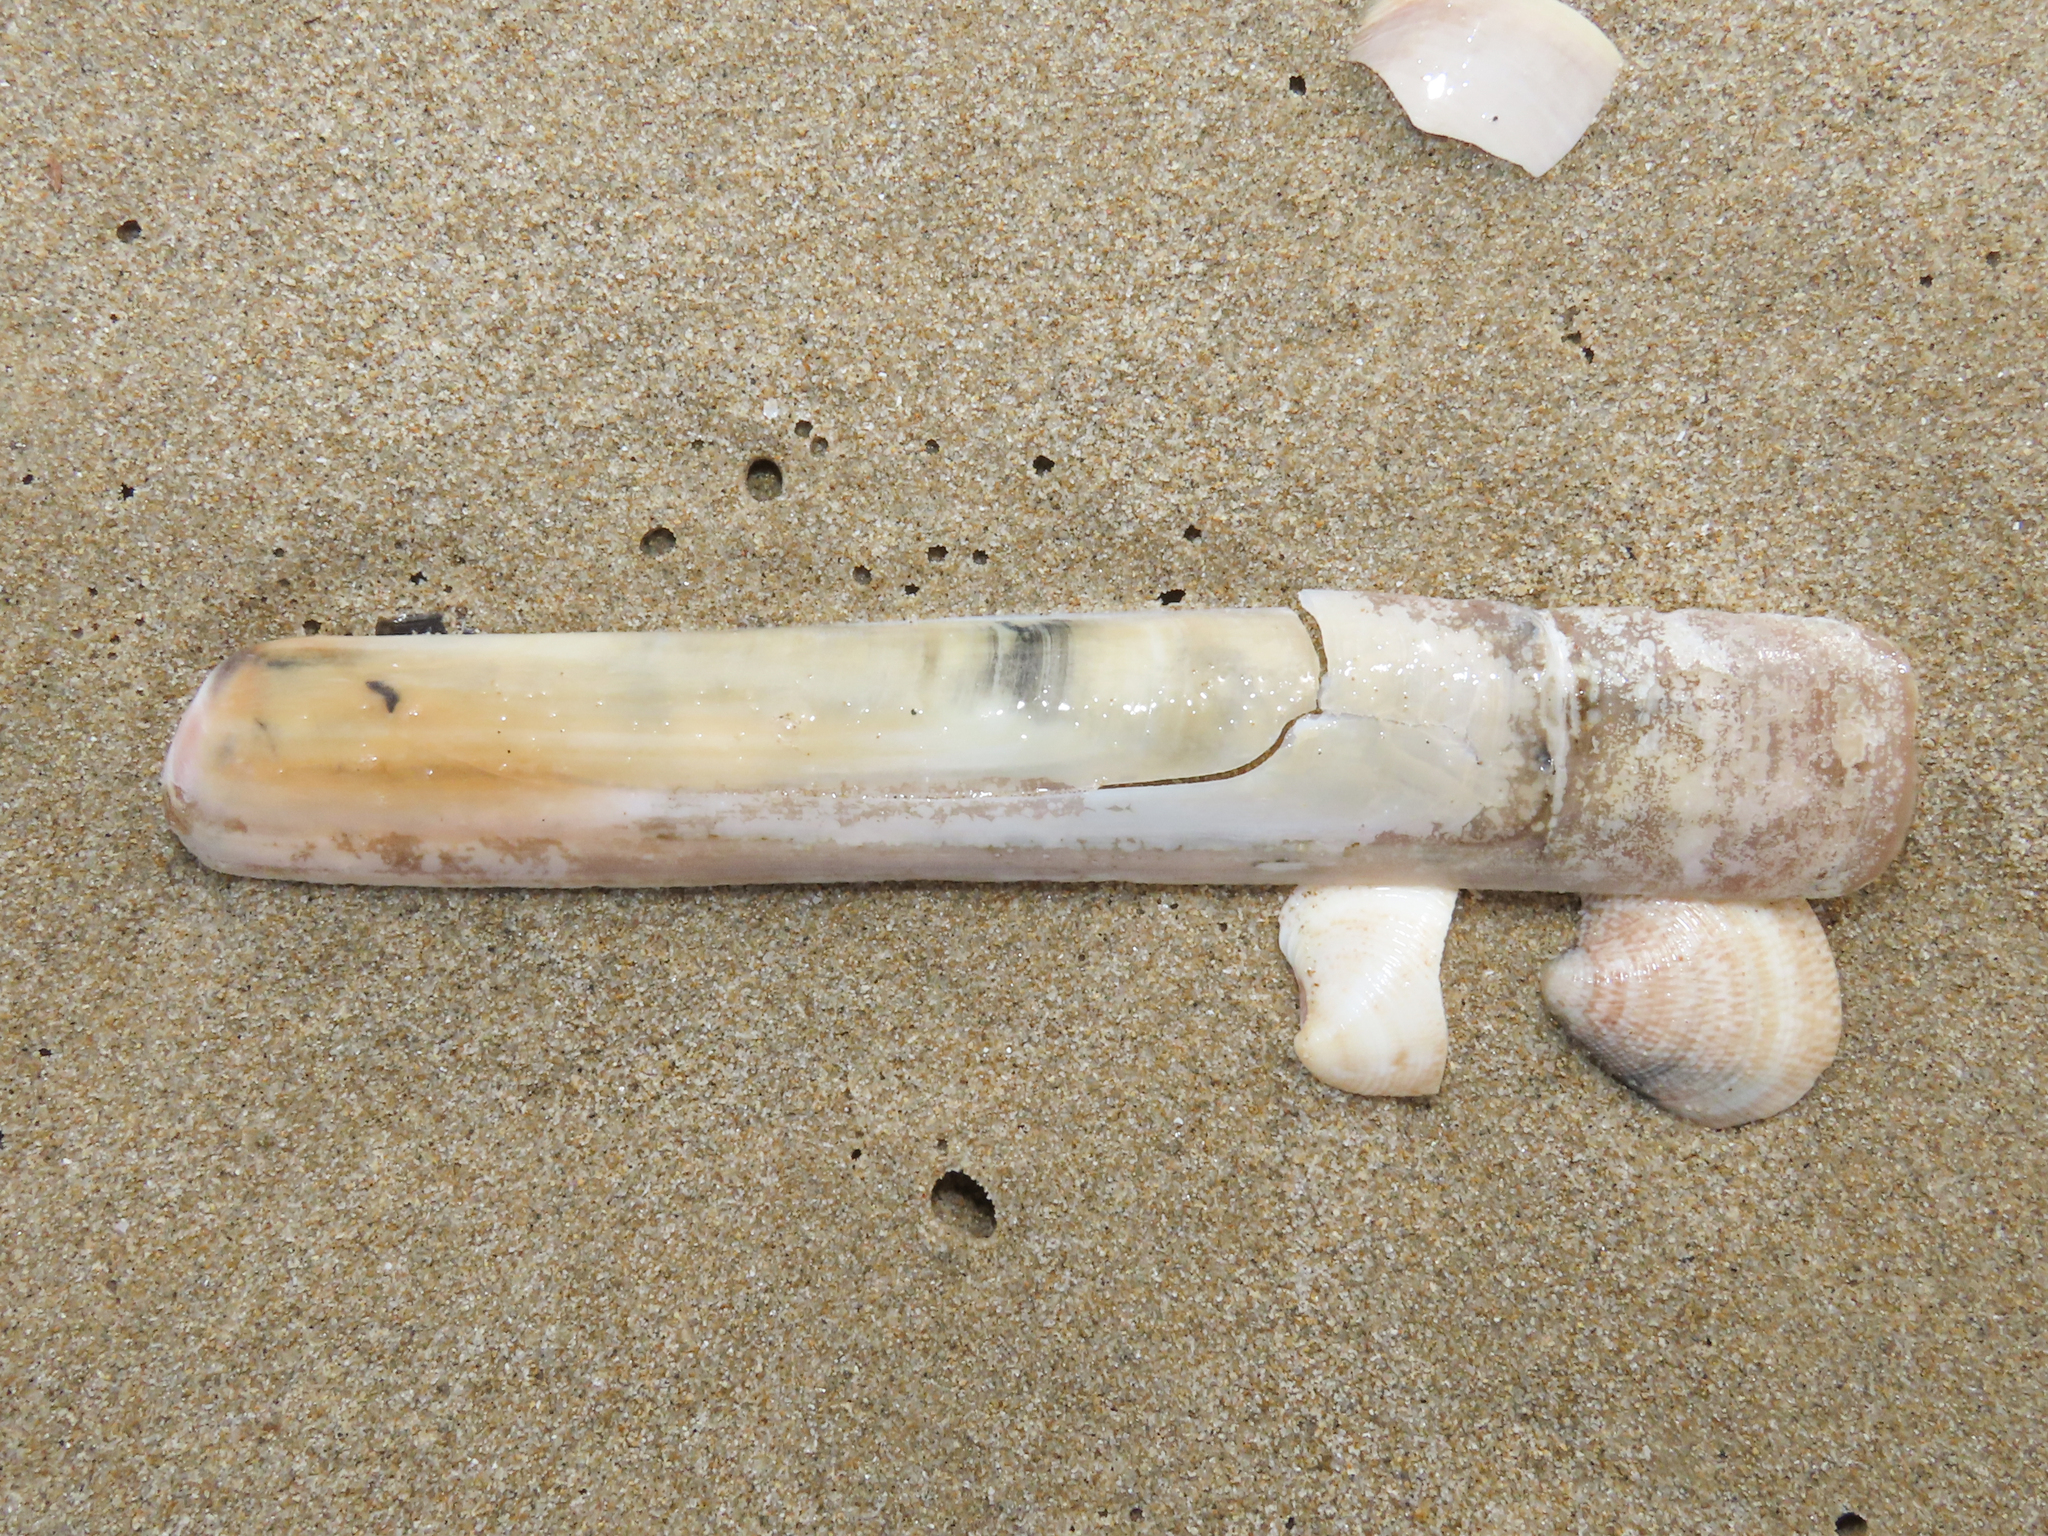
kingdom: Animalia
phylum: Mollusca
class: Bivalvia
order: Adapedonta
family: Solenidae
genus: Solen
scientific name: Solen marginatus
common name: Grooved razor shell
